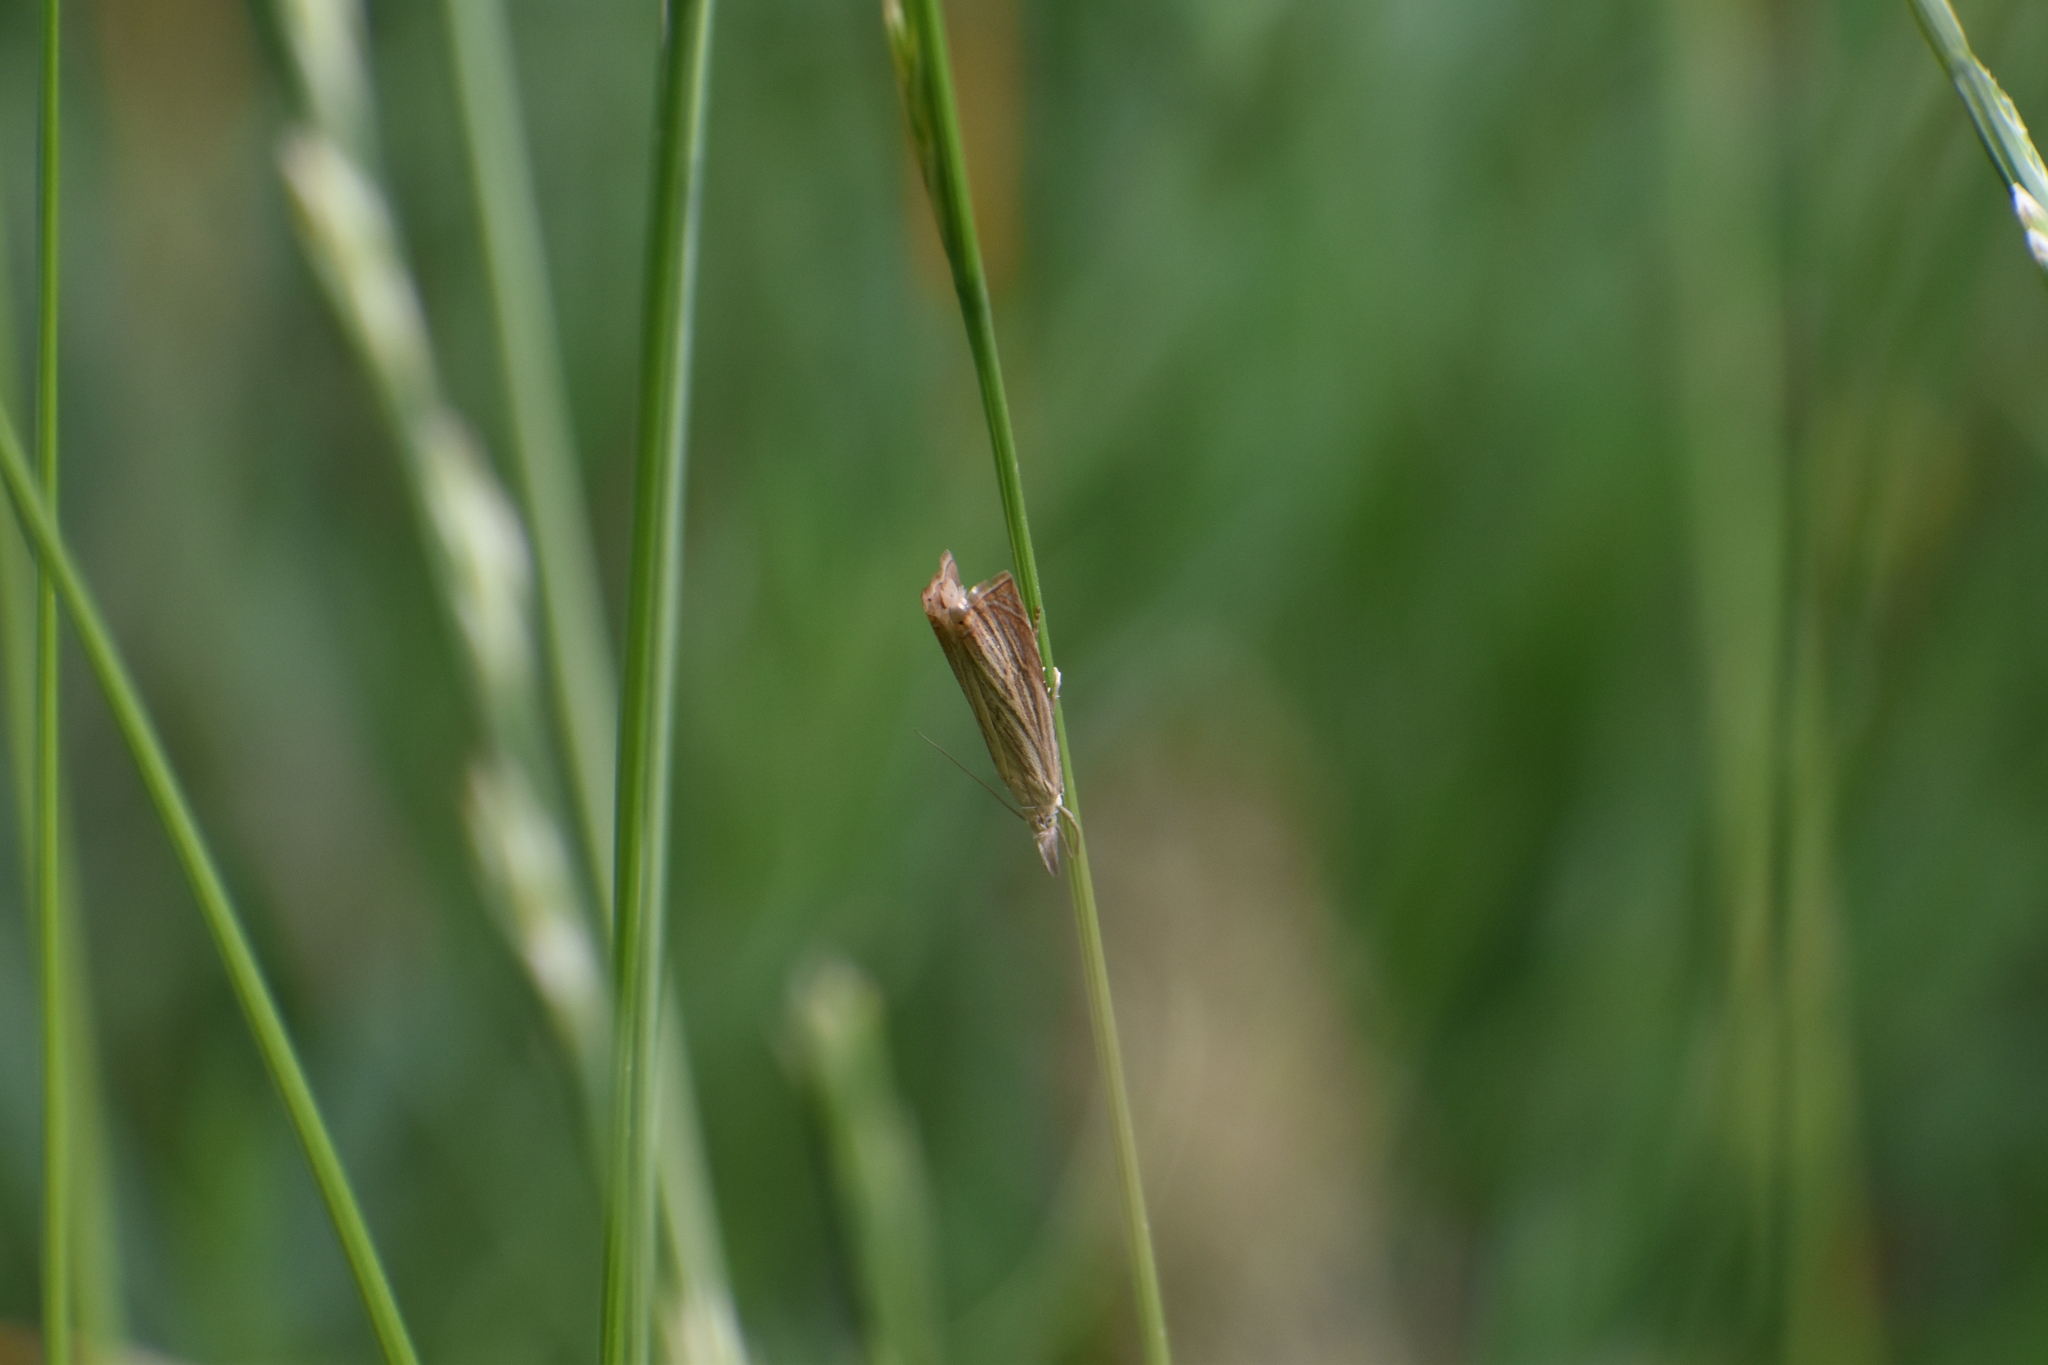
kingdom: Animalia
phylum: Arthropoda
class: Insecta
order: Lepidoptera
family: Crambidae
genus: Chrysoteuchia
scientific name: Chrysoteuchia culmella
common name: Garden grass-veneer
